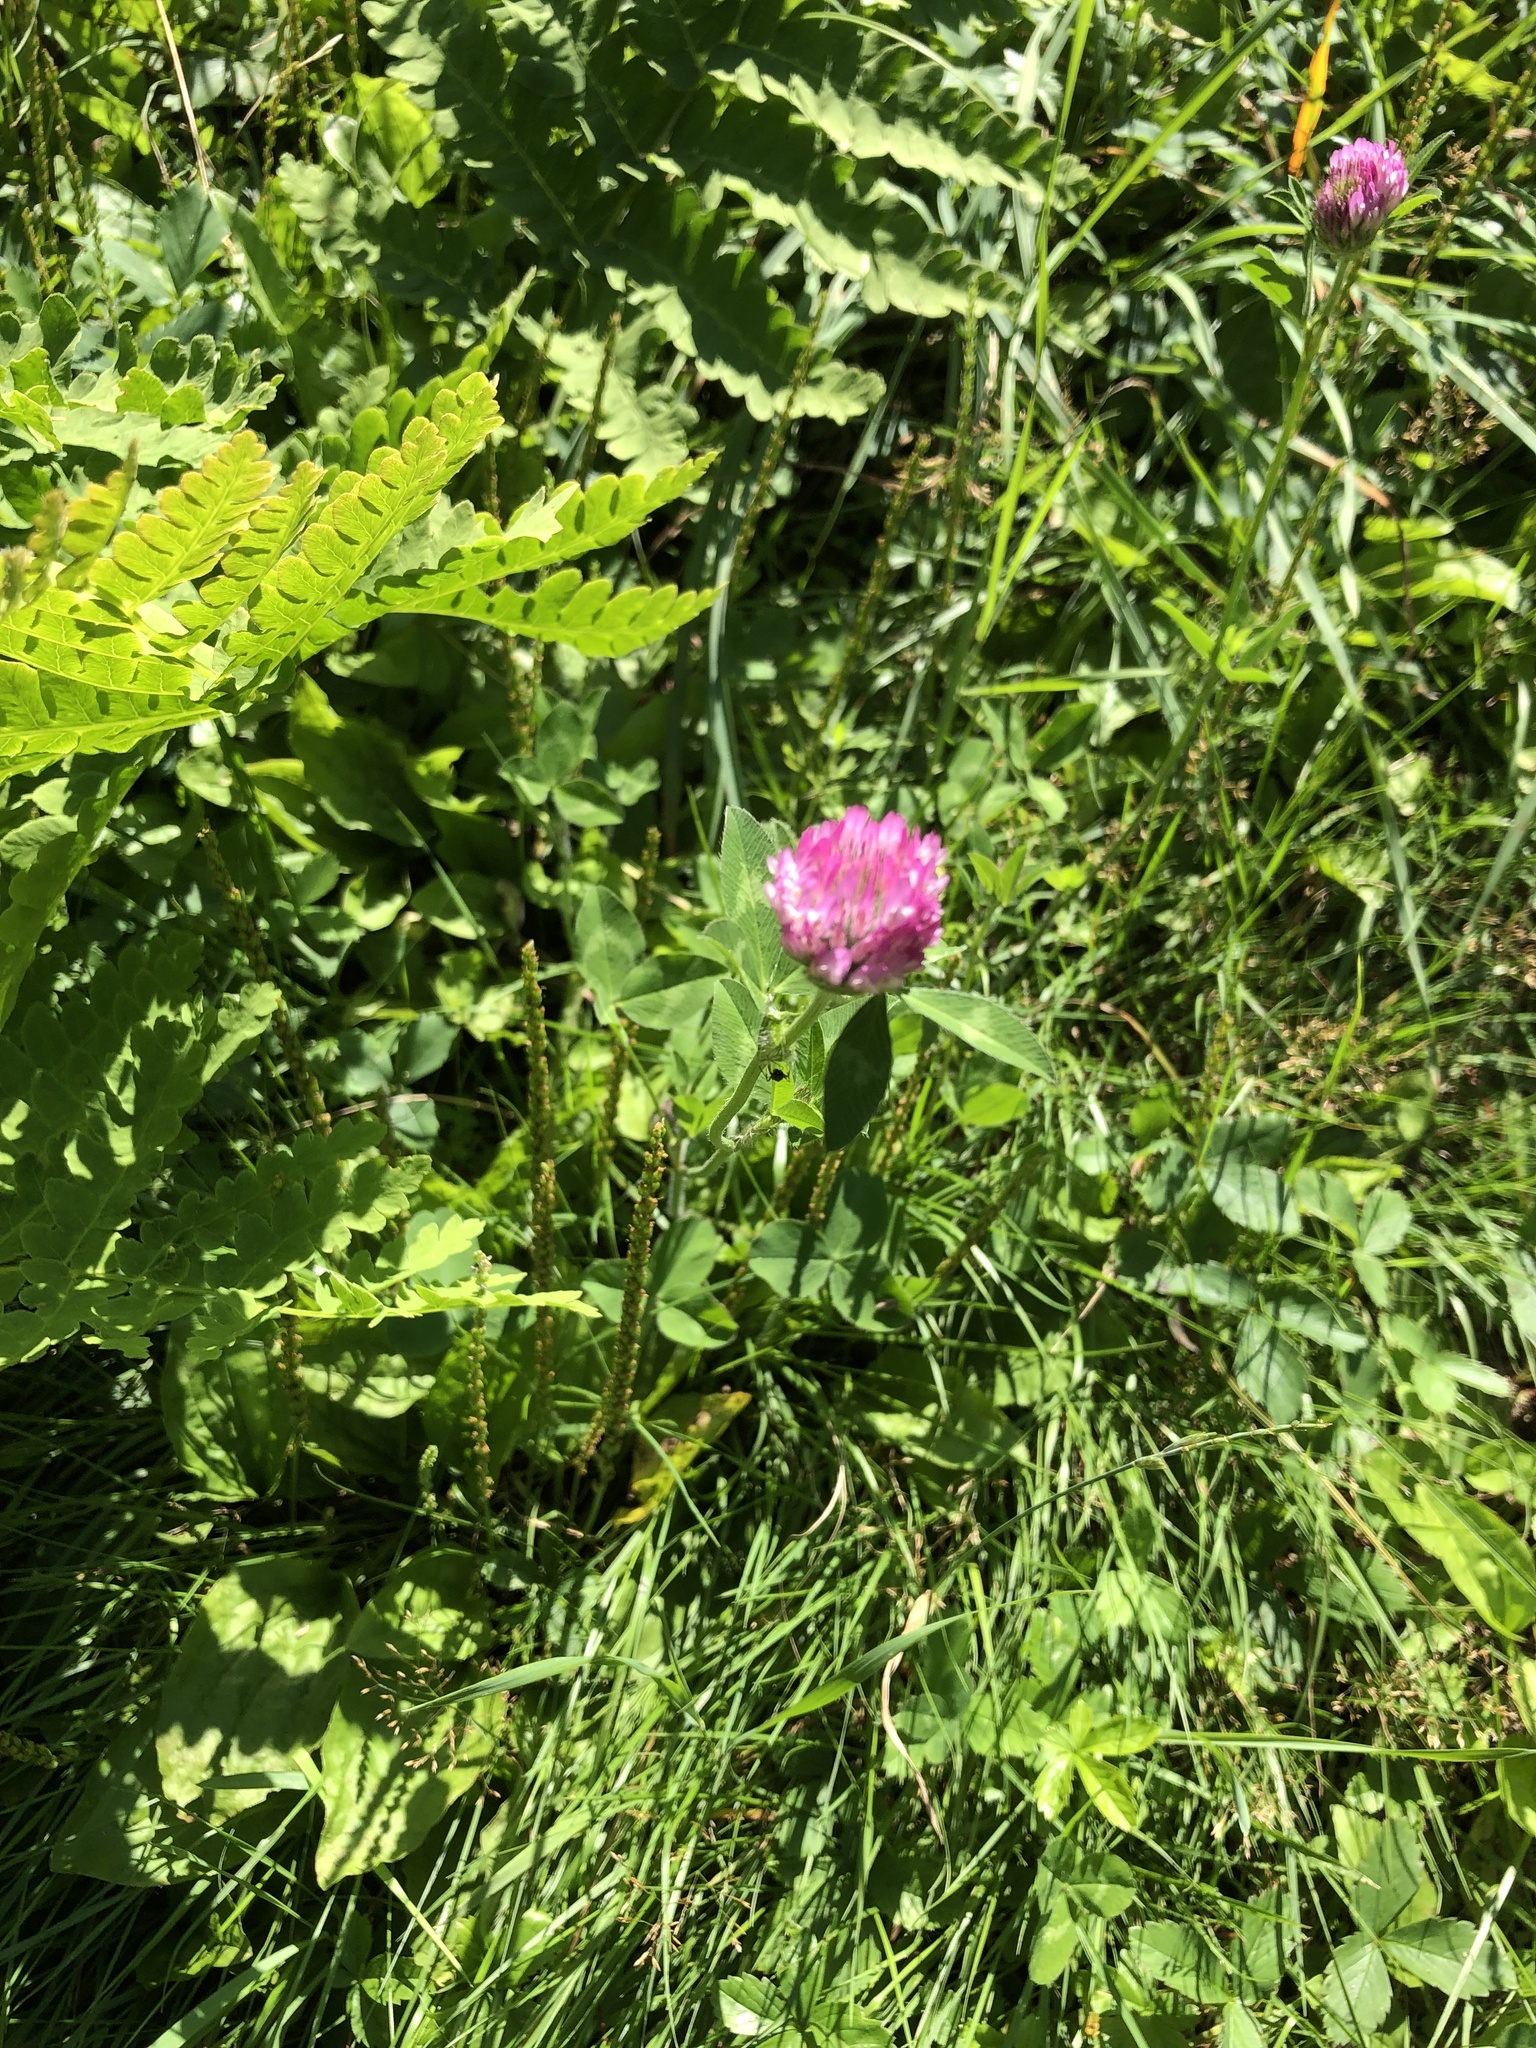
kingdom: Plantae
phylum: Tracheophyta
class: Magnoliopsida
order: Fabales
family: Fabaceae
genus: Trifolium
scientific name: Trifolium pratense
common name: Red clover
